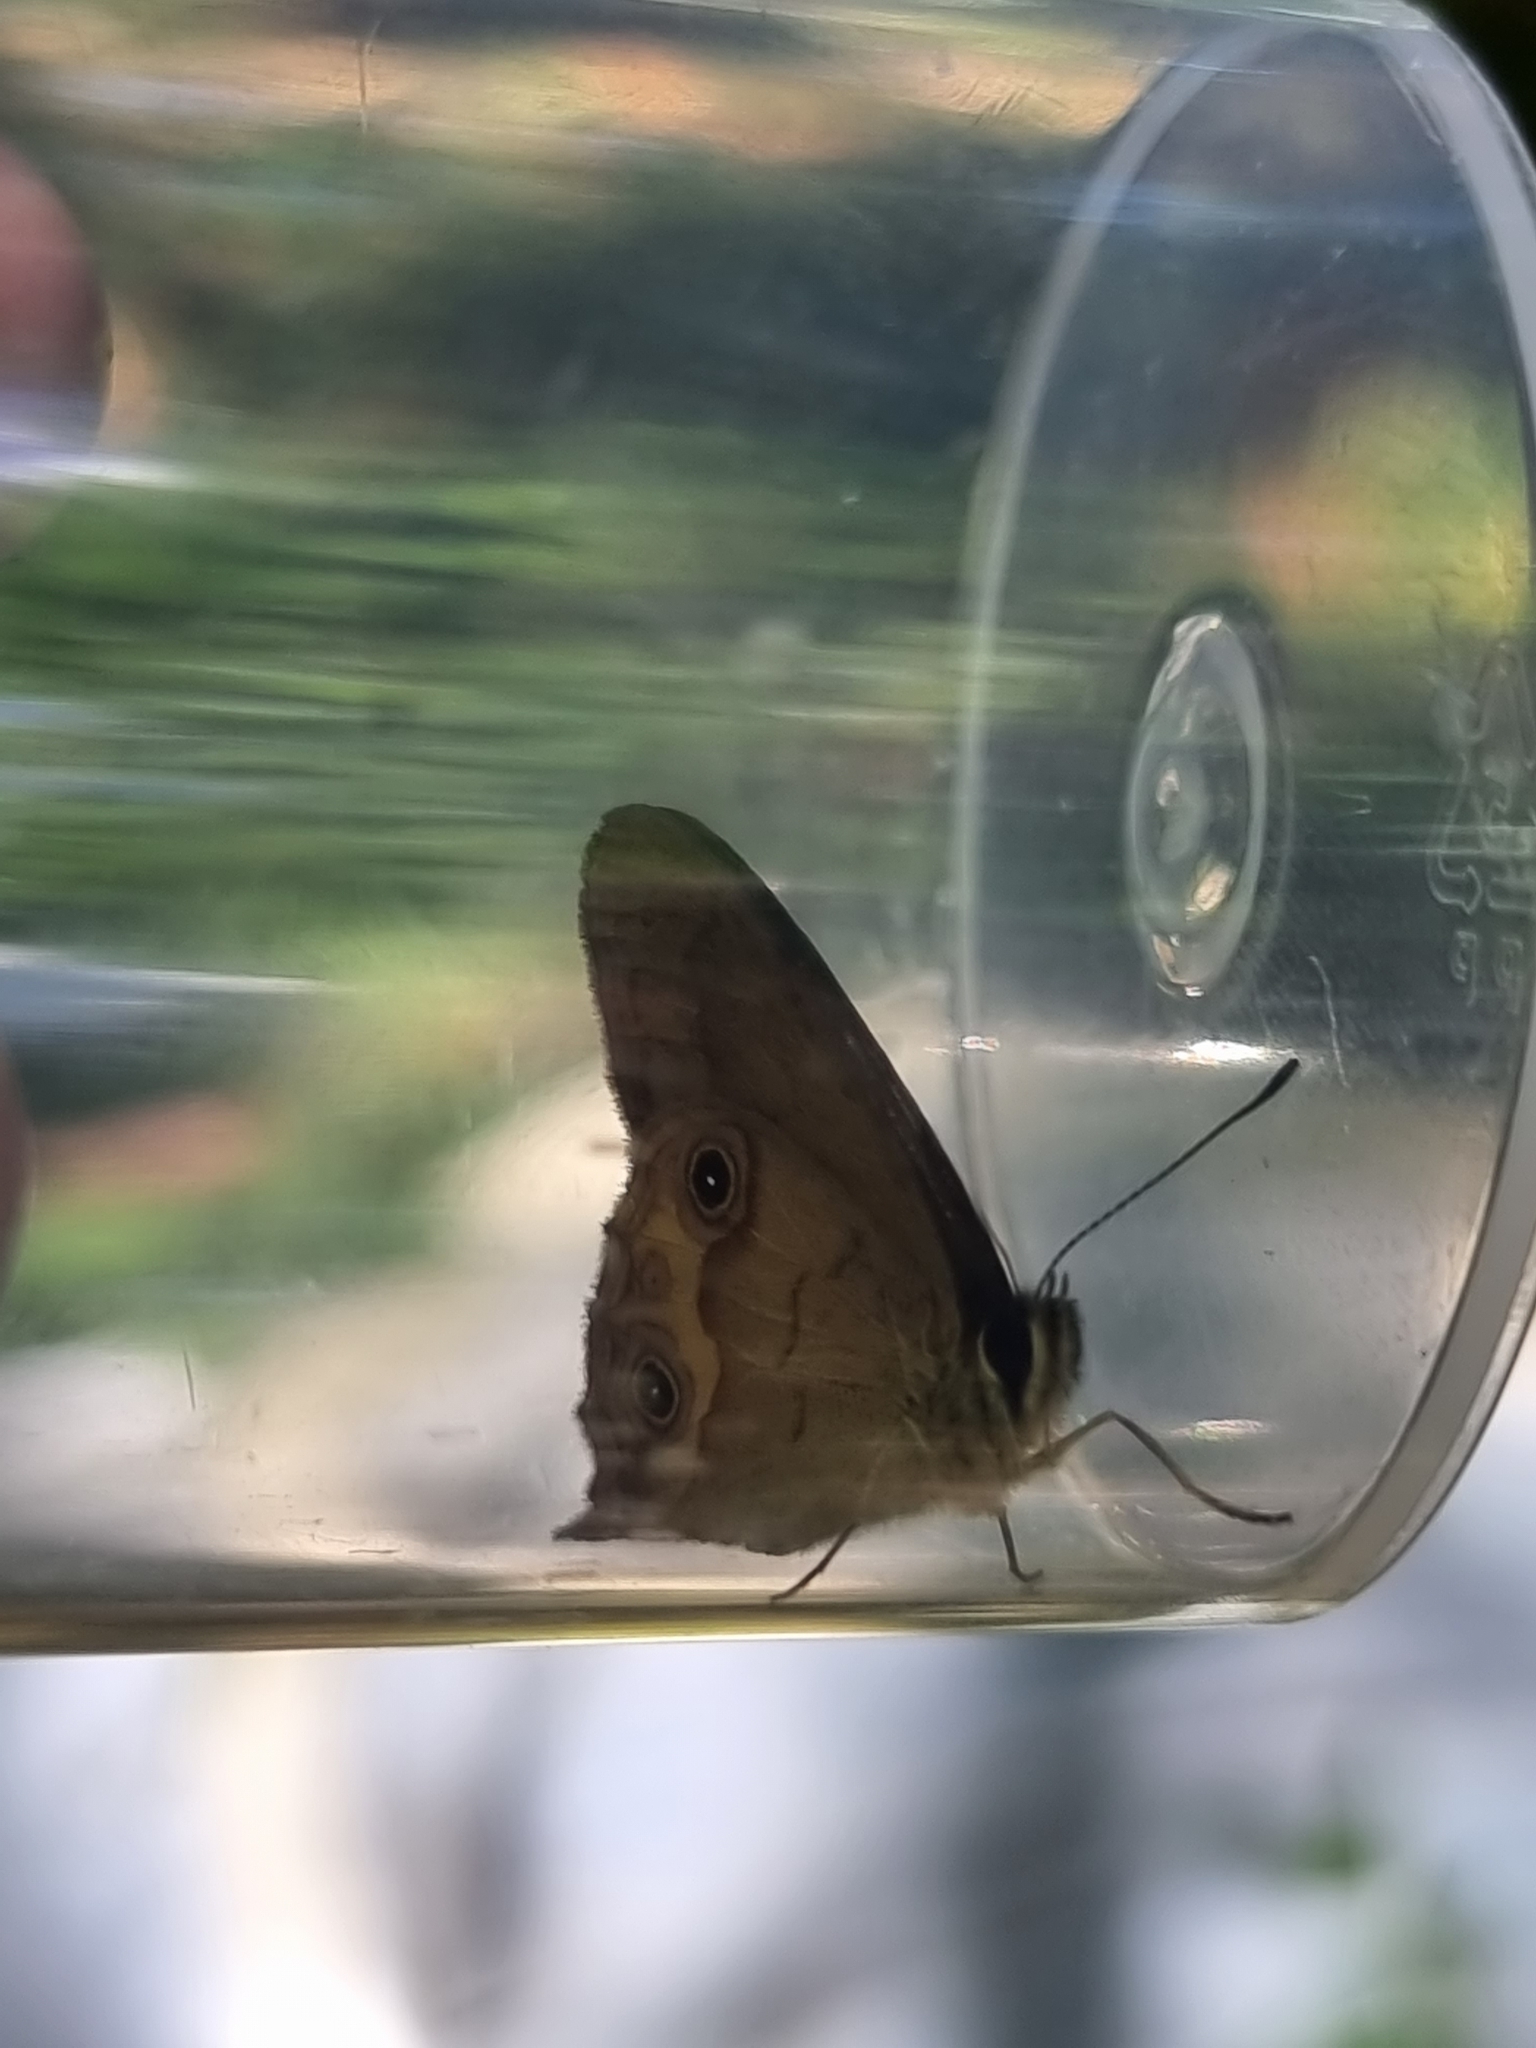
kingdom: Animalia
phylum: Arthropoda
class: Insecta
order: Lepidoptera
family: Nymphalidae
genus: Hypocysta
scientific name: Hypocysta metirius
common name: Brown ringlet
